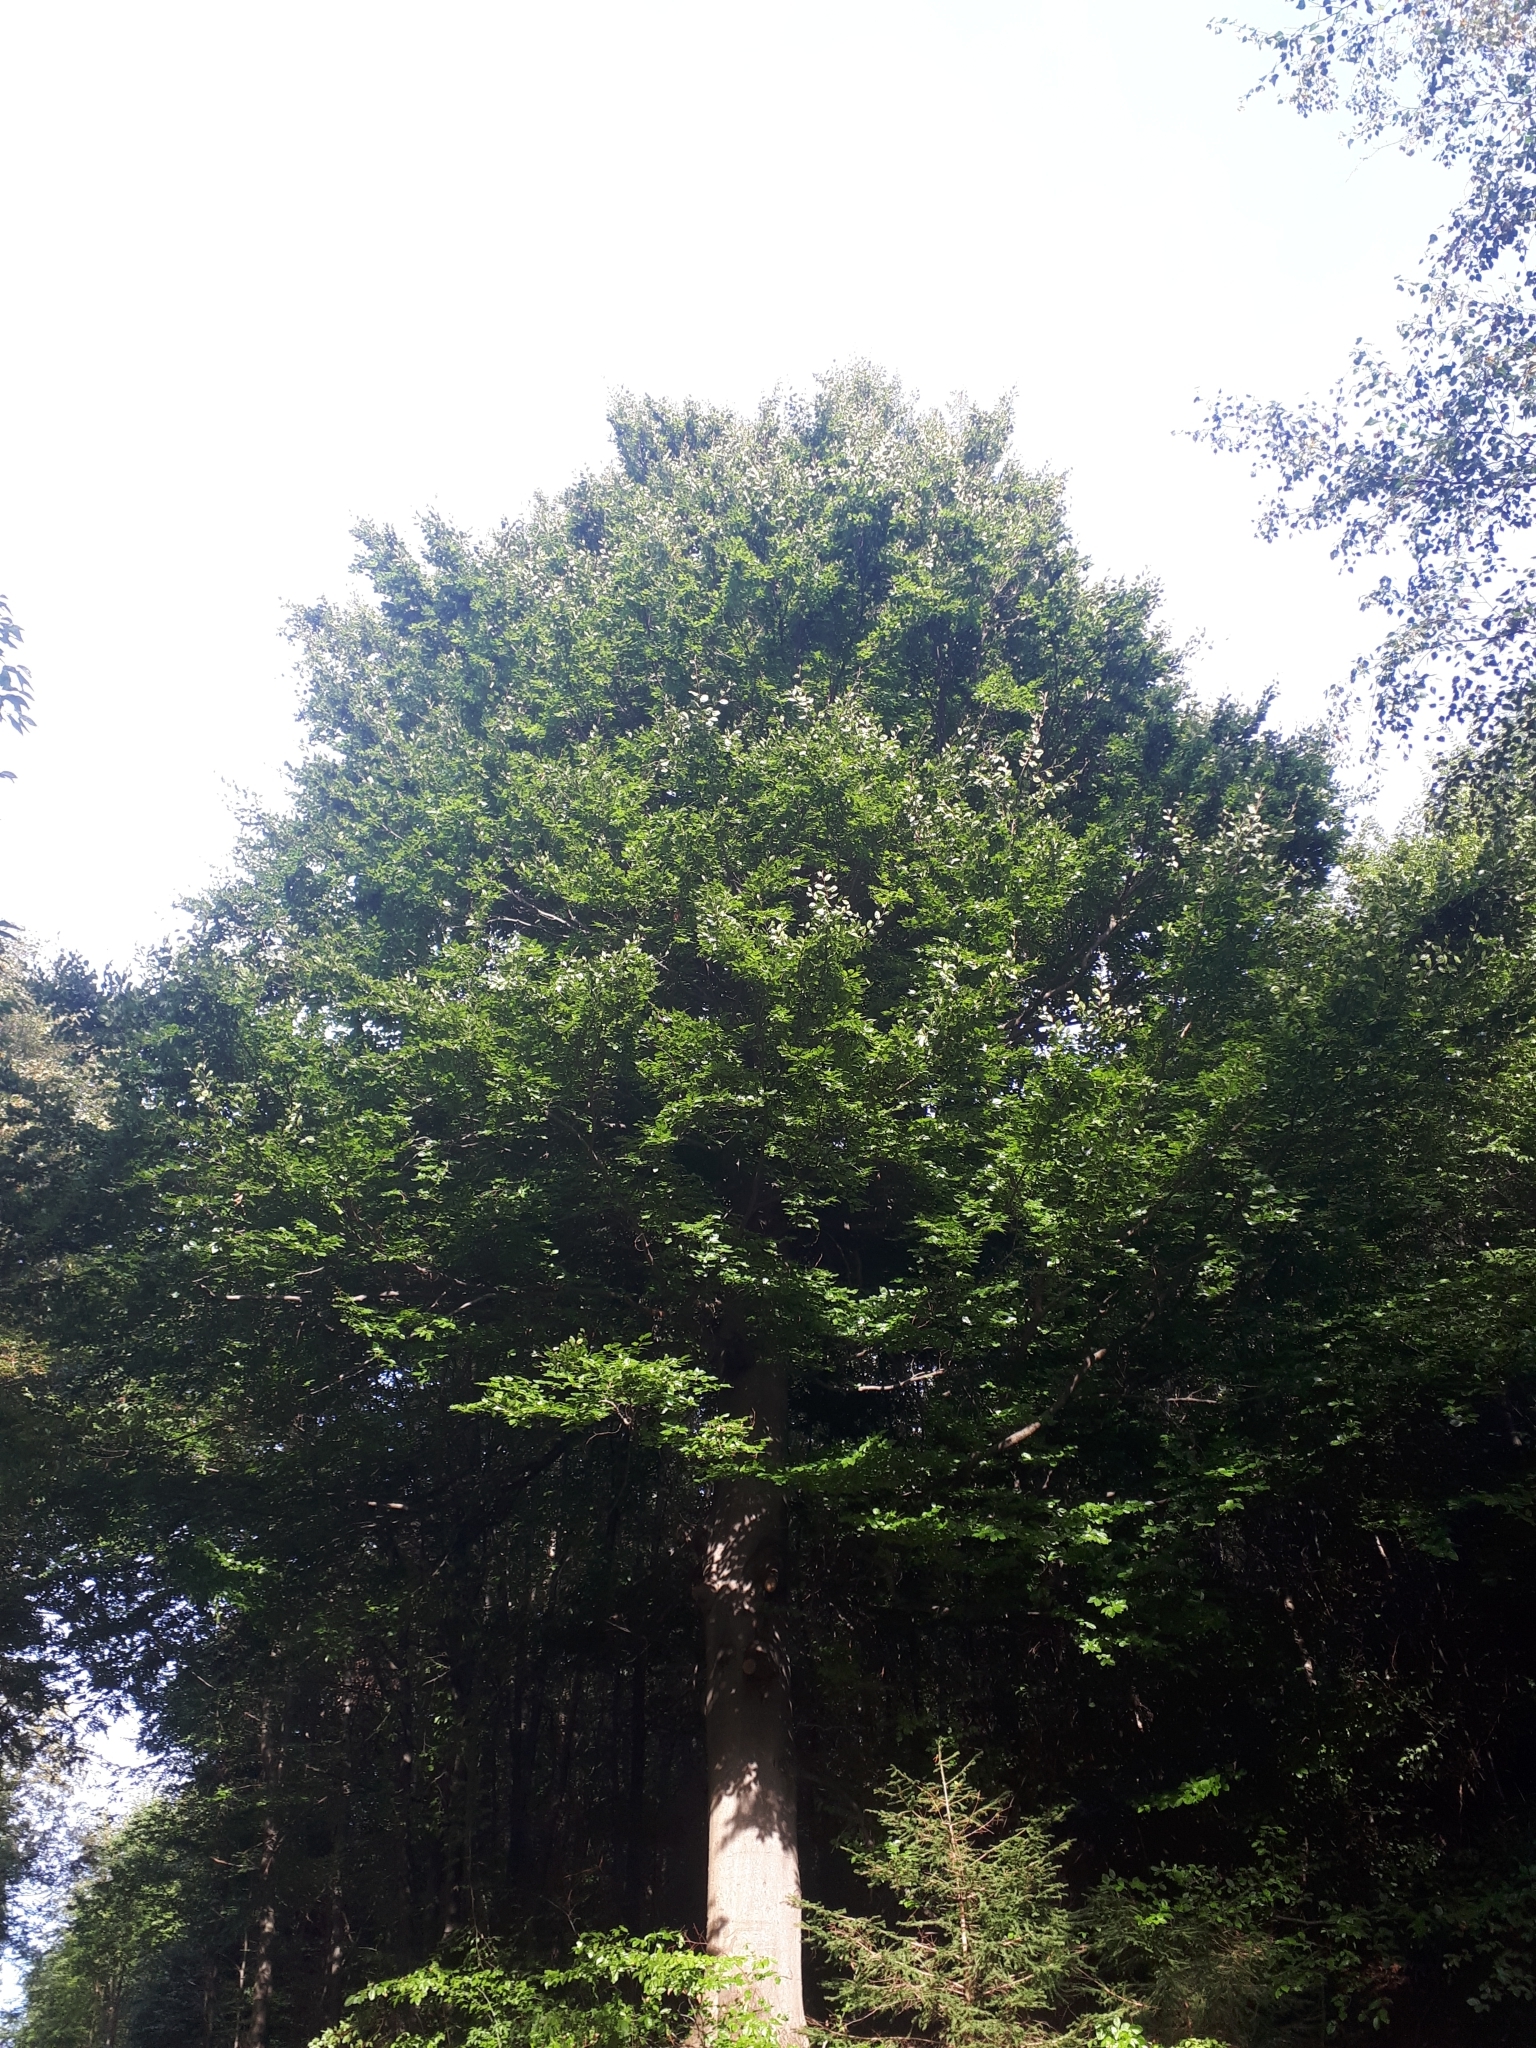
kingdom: Plantae
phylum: Tracheophyta
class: Magnoliopsida
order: Fagales
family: Fagaceae
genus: Fagus
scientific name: Fagus sylvatica
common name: Beech
